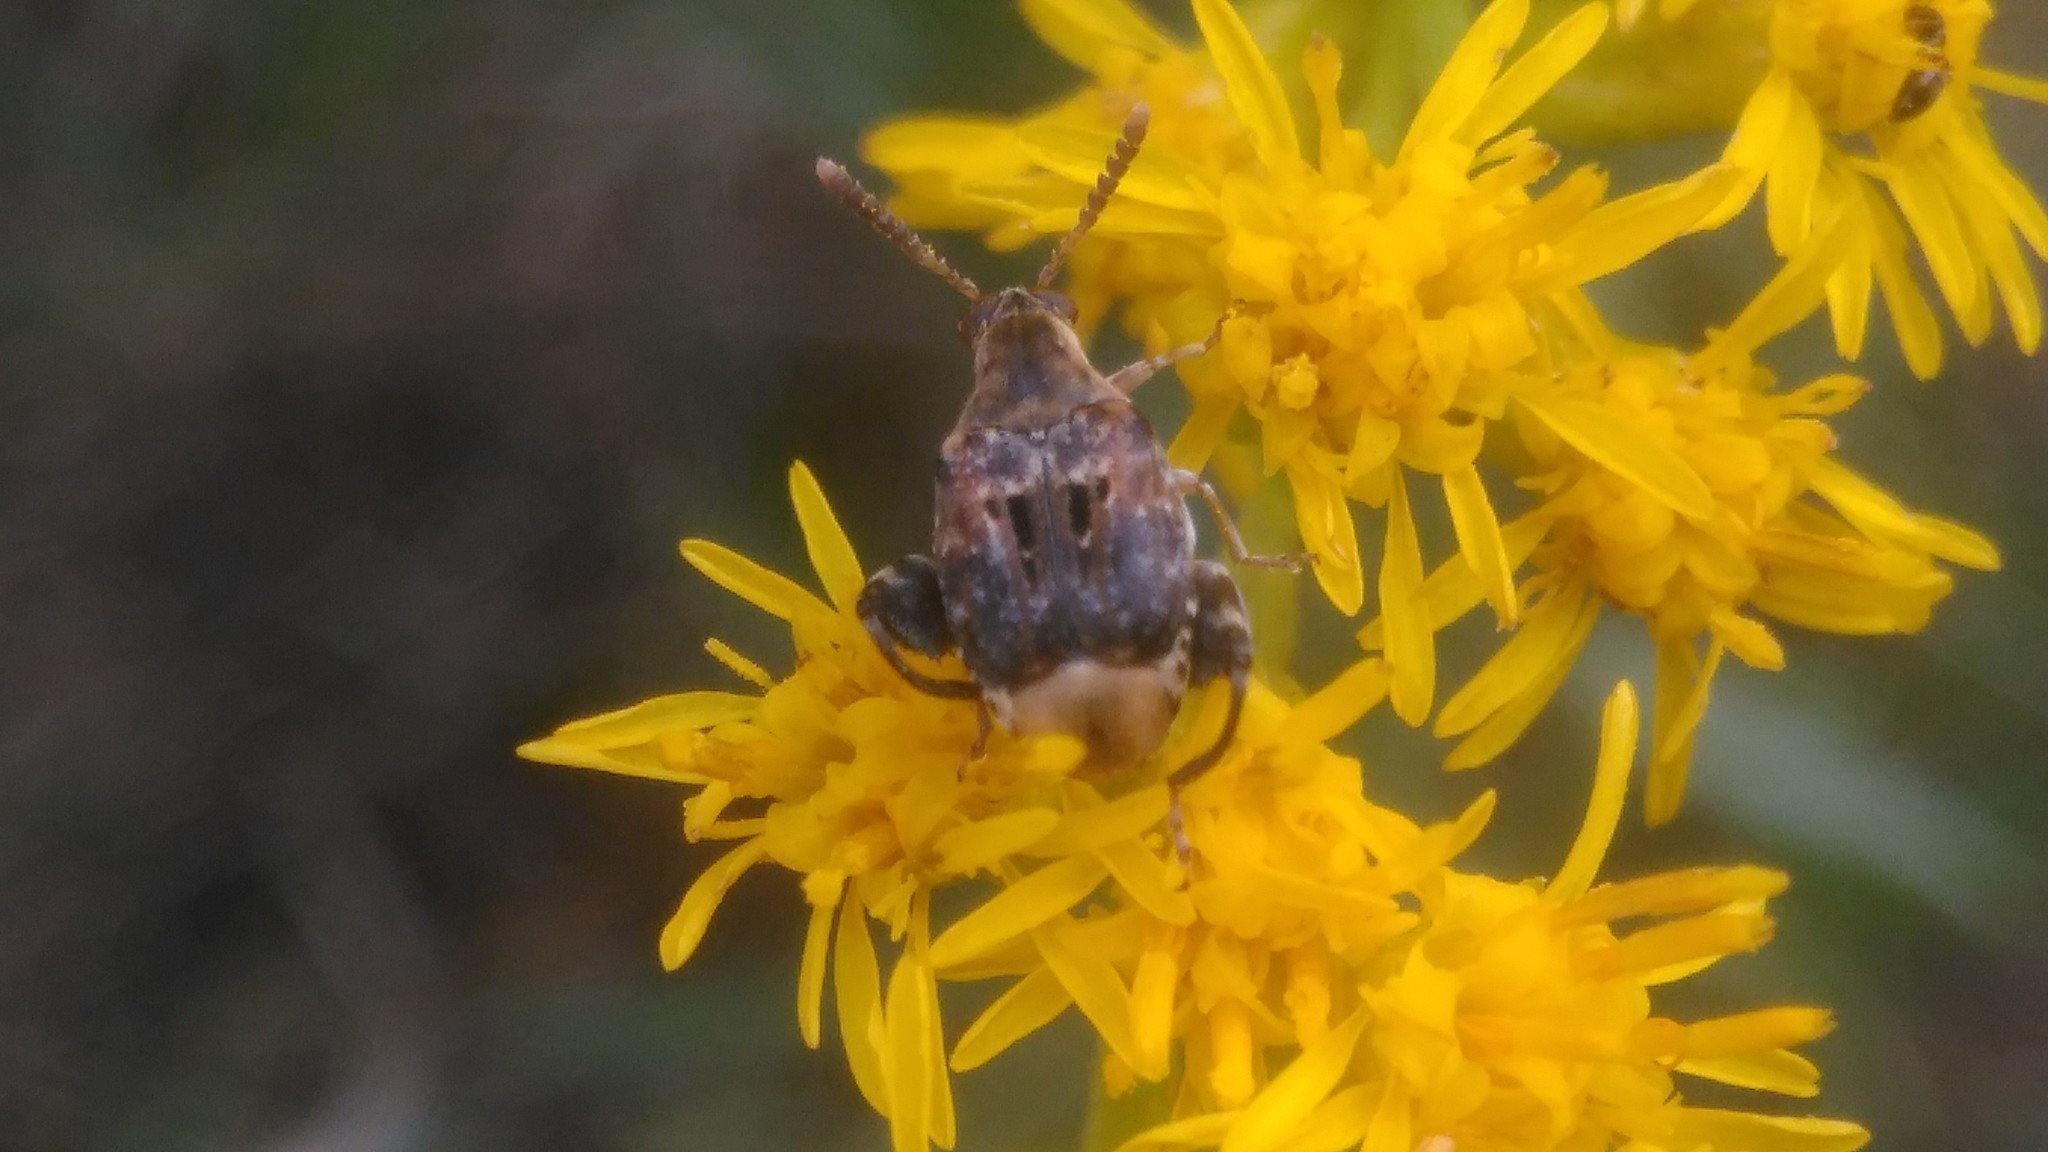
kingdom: Animalia
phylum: Arthropoda
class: Insecta
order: Coleoptera
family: Chrysomelidae
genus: Penthobruchus
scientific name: Penthobruchus
